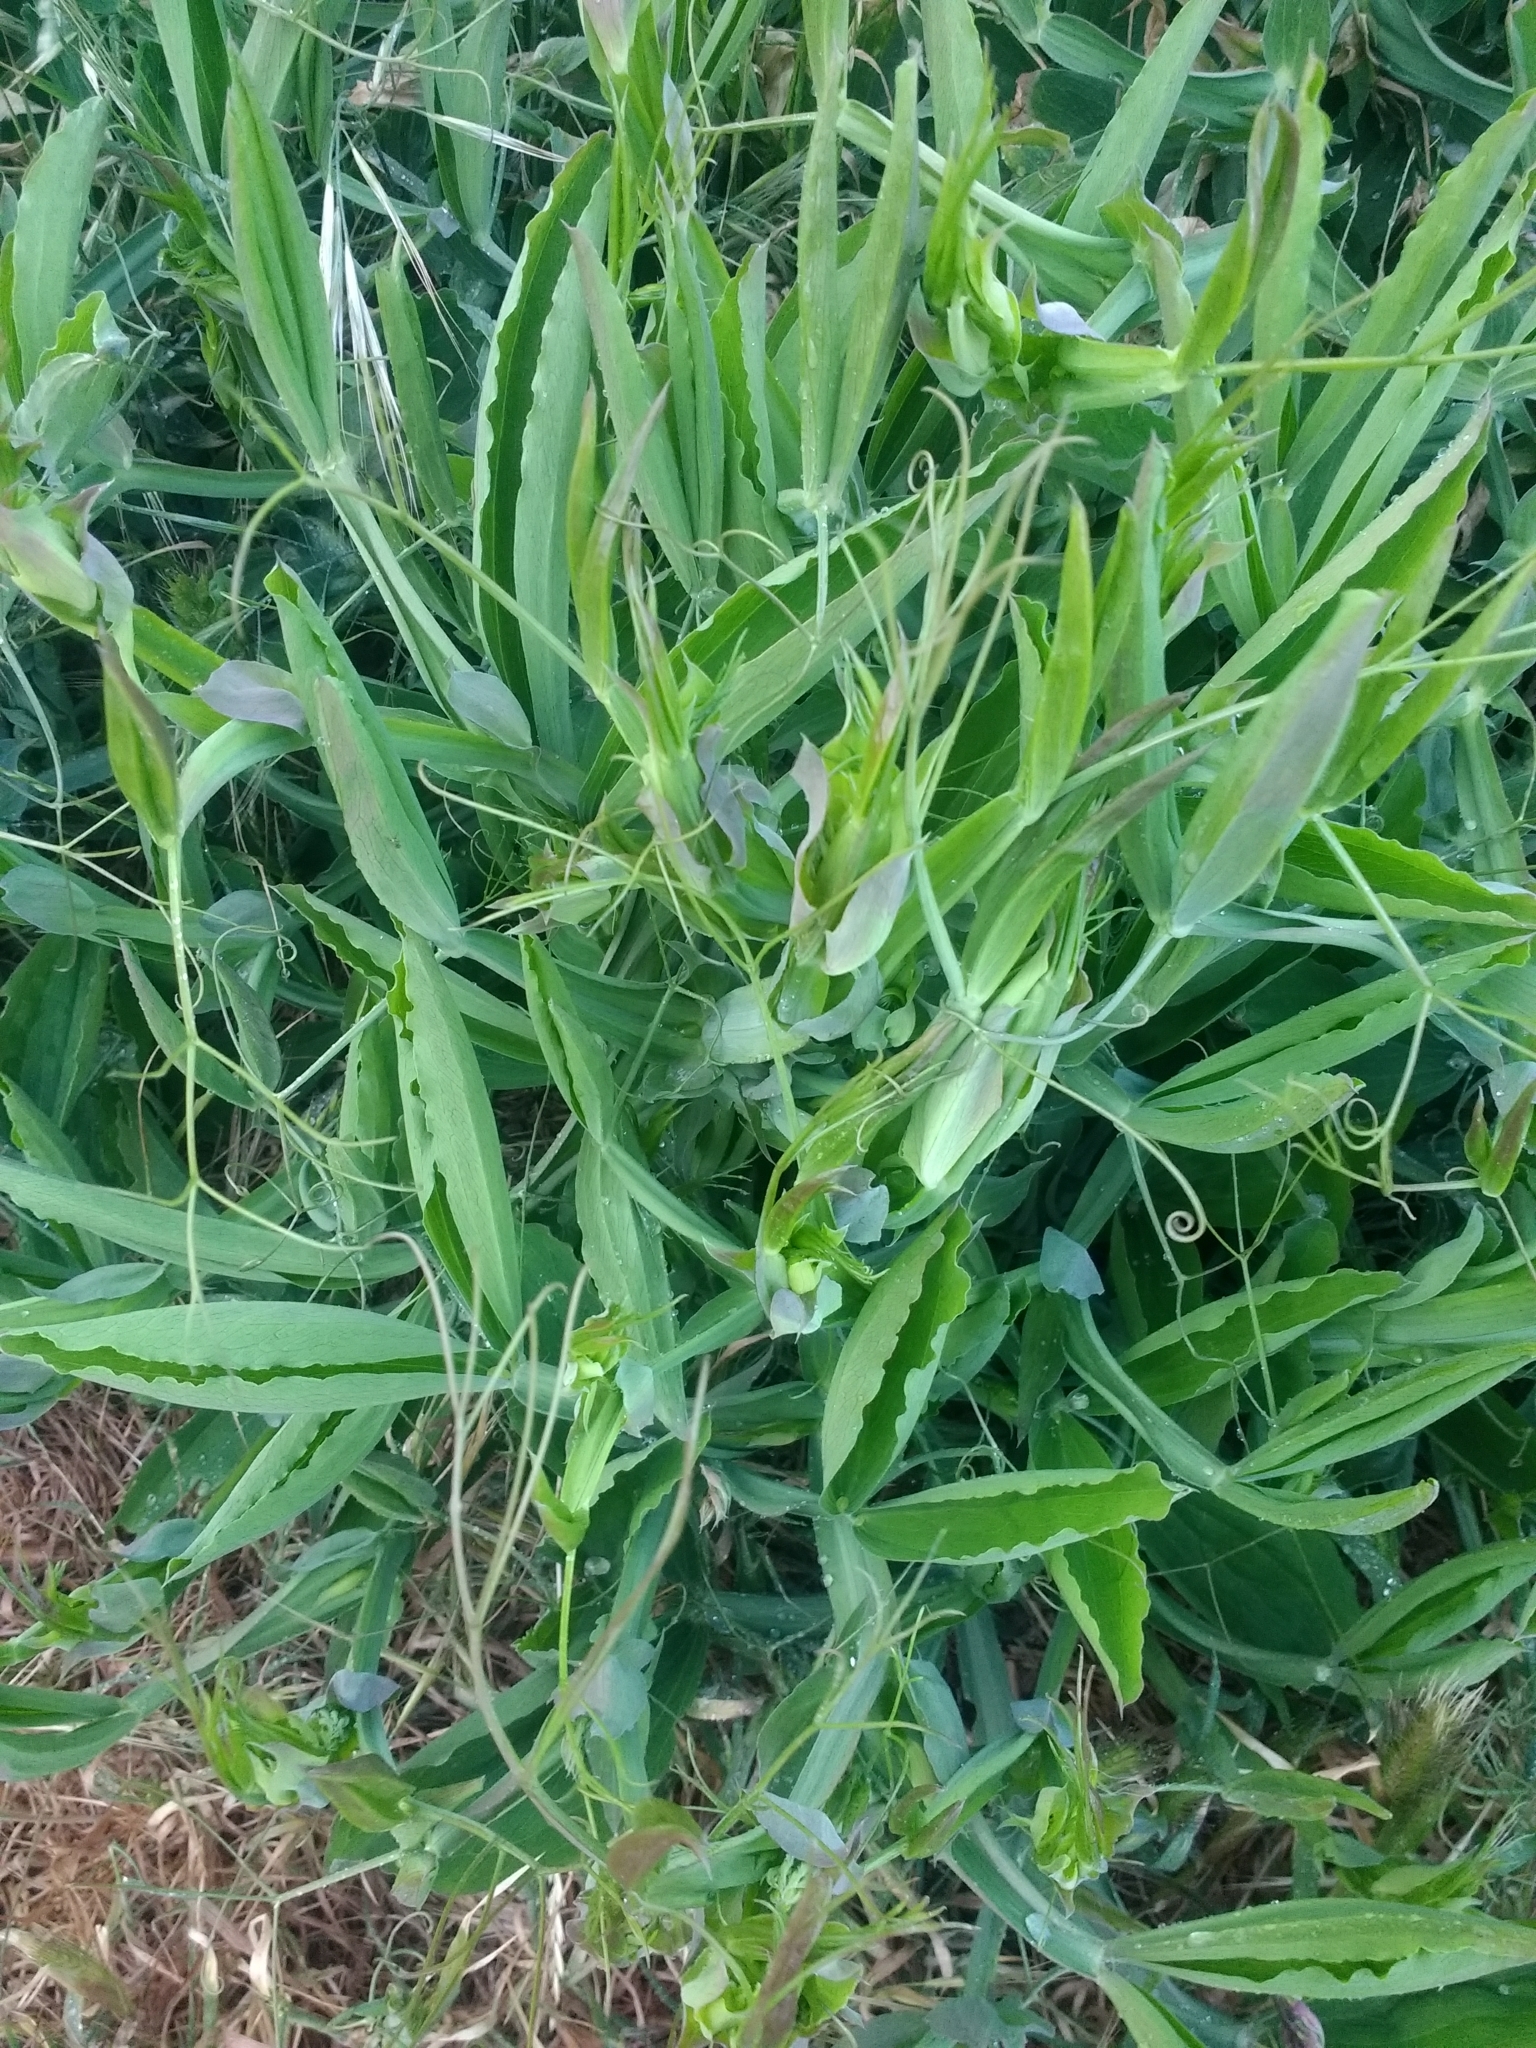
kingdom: Plantae
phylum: Tracheophyta
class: Magnoliopsida
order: Fabales
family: Fabaceae
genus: Lathyrus
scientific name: Lathyrus latifolius
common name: Perennial pea
